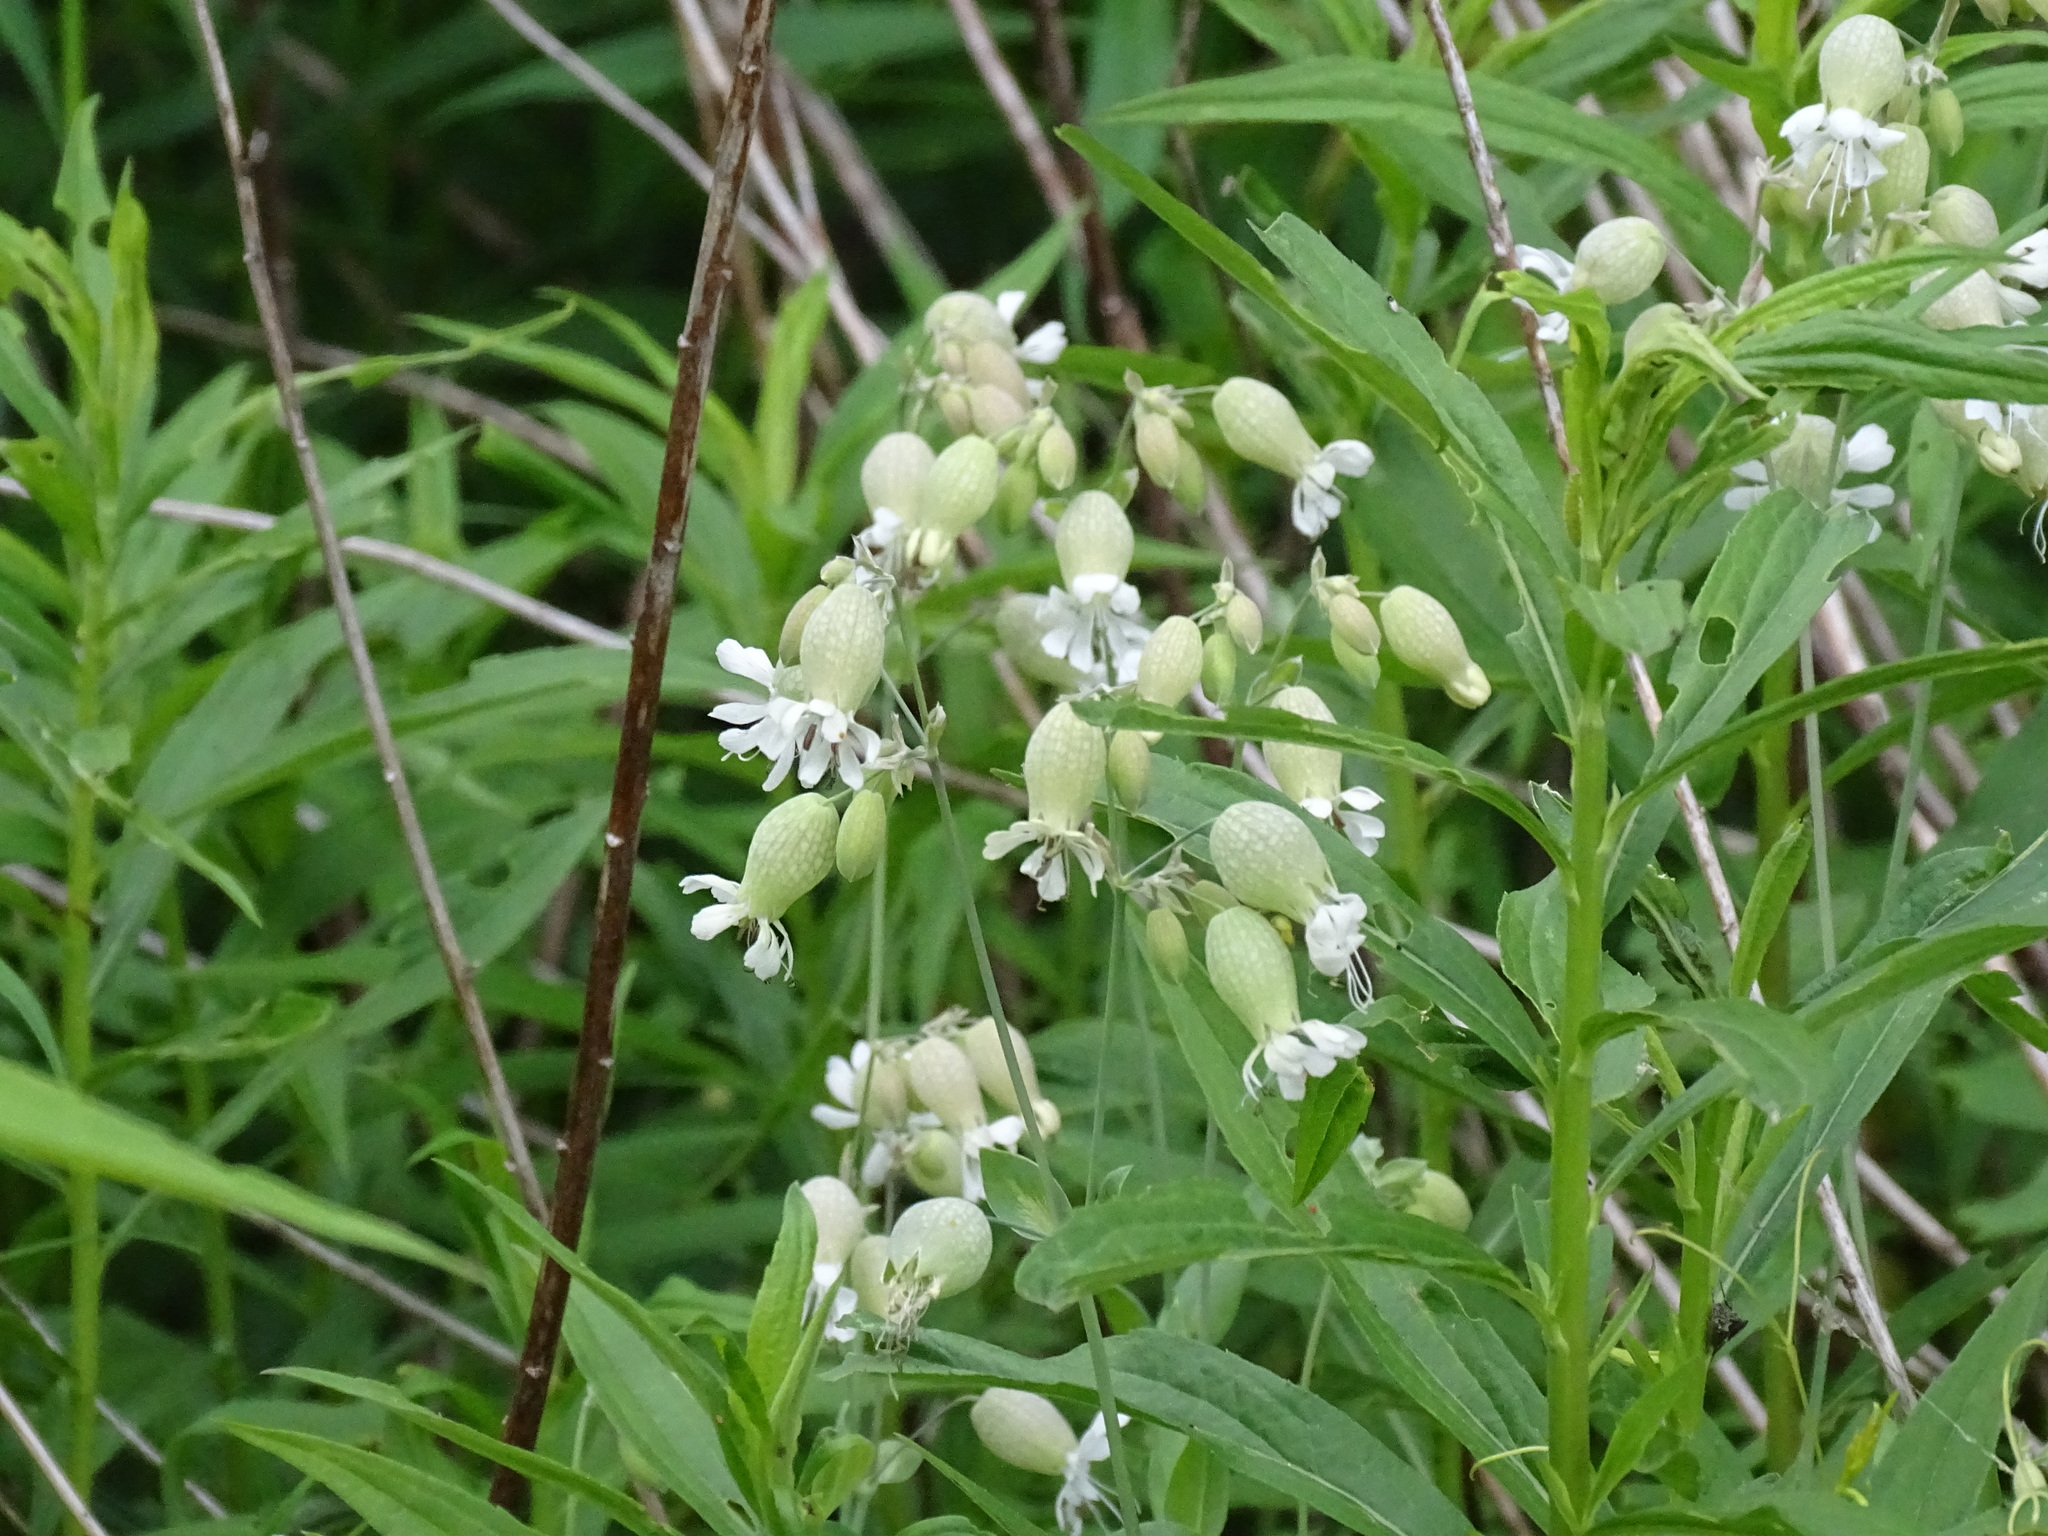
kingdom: Plantae
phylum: Tracheophyta
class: Magnoliopsida
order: Caryophyllales
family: Caryophyllaceae
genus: Silene
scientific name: Silene vulgaris
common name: Bladder campion
